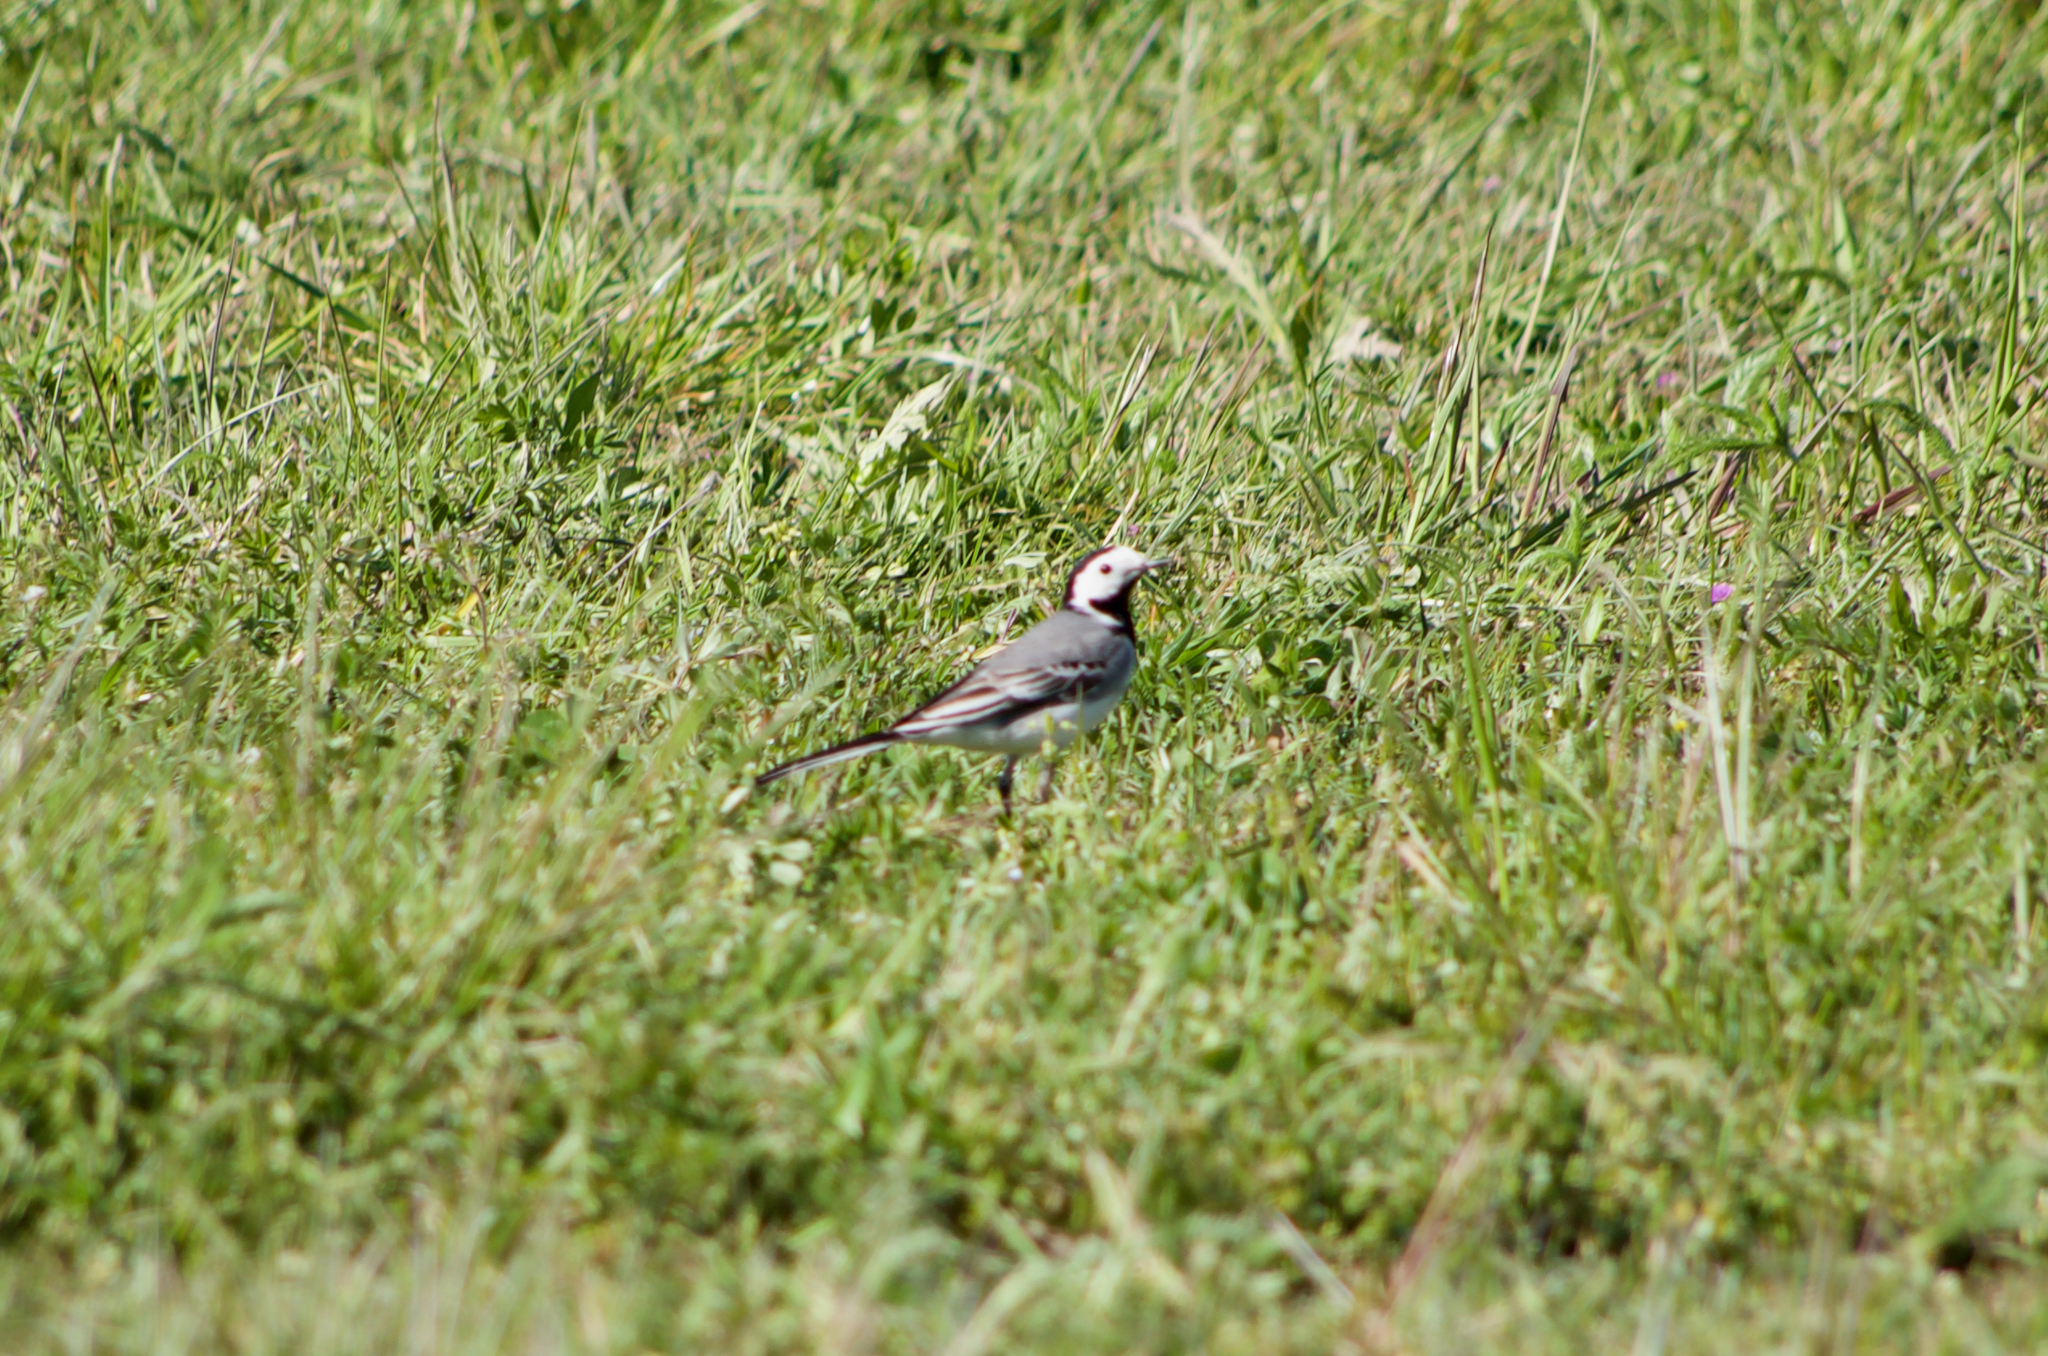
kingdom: Animalia
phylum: Chordata
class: Aves
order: Passeriformes
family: Motacillidae
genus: Motacilla
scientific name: Motacilla alba
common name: White wagtail
